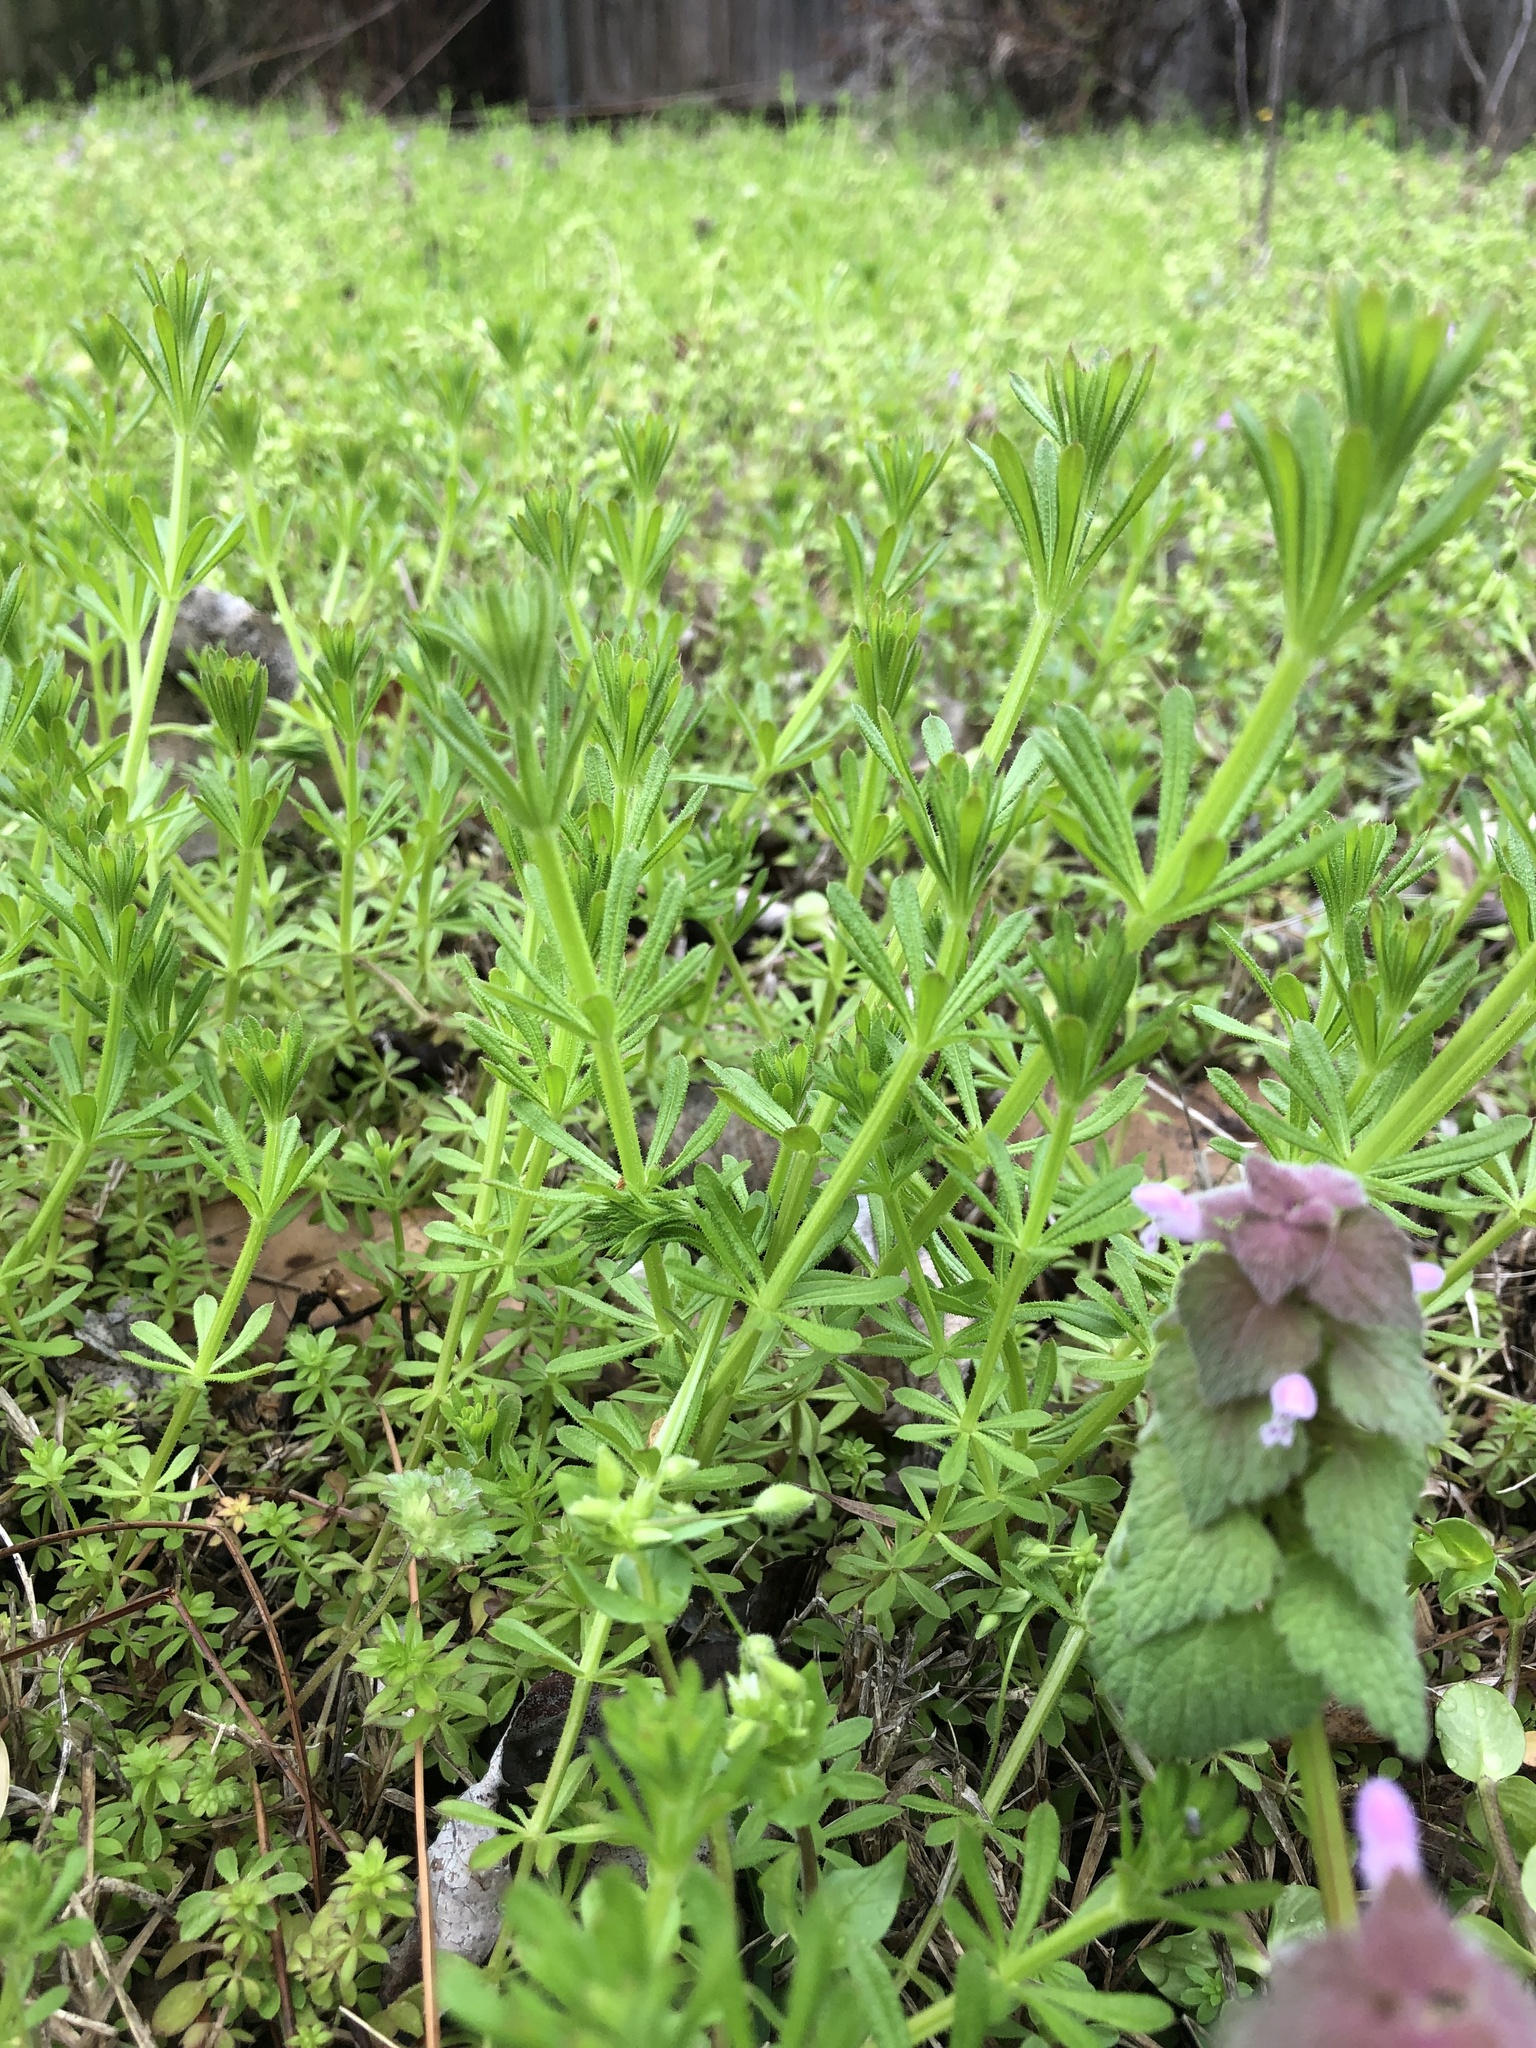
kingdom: Plantae
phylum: Tracheophyta
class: Magnoliopsida
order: Gentianales
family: Rubiaceae
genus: Galium
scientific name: Galium aparine
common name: Cleavers
